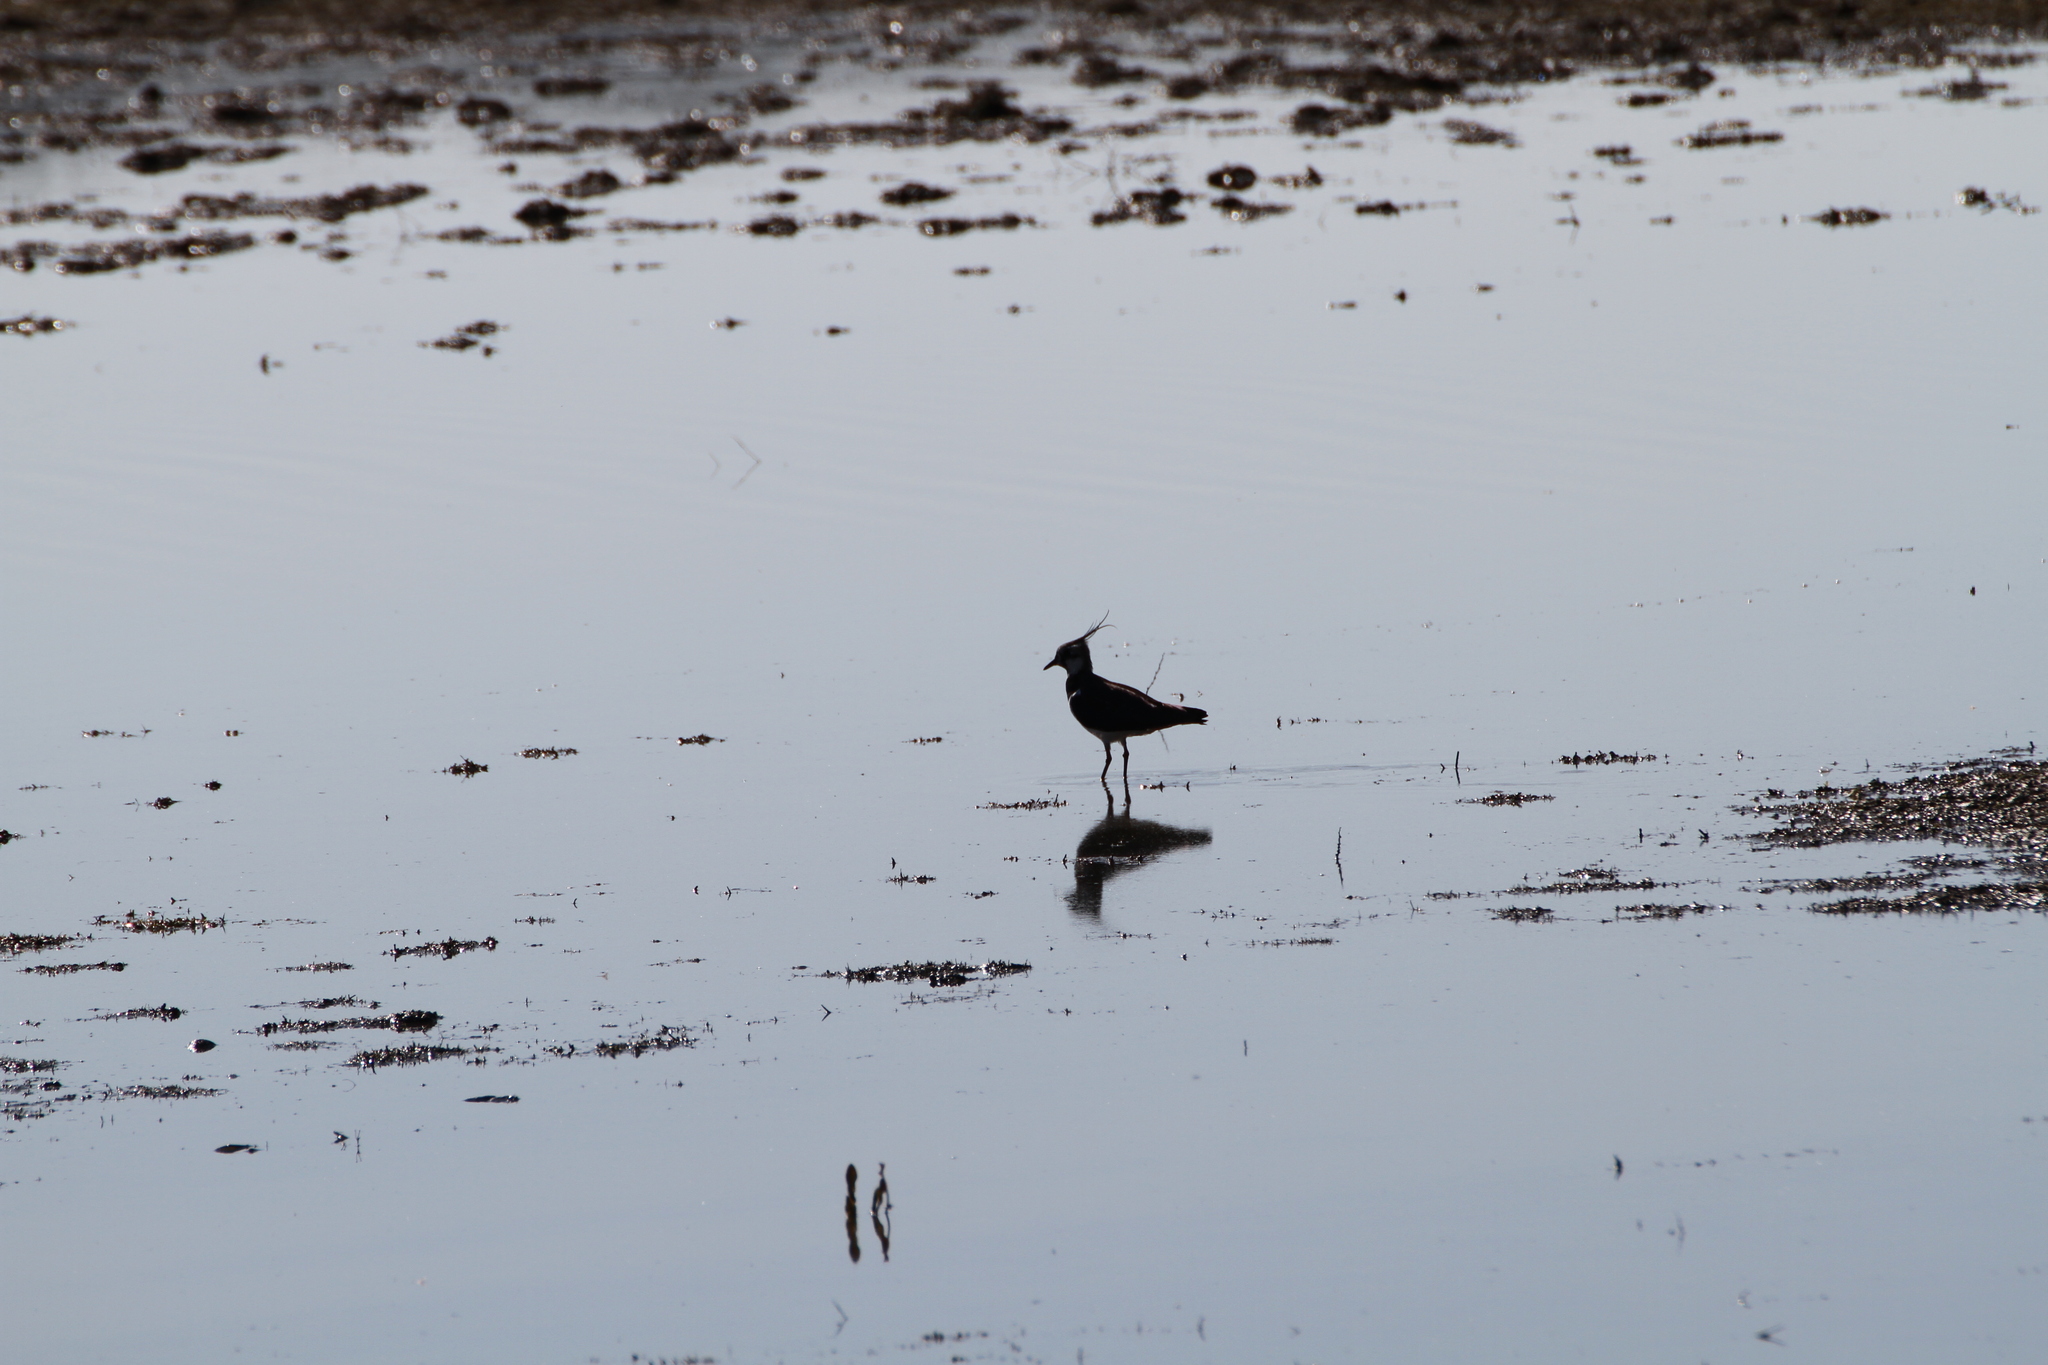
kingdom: Animalia
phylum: Chordata
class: Aves
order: Charadriiformes
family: Charadriidae
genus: Vanellus
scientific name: Vanellus vanellus
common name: Northern lapwing
